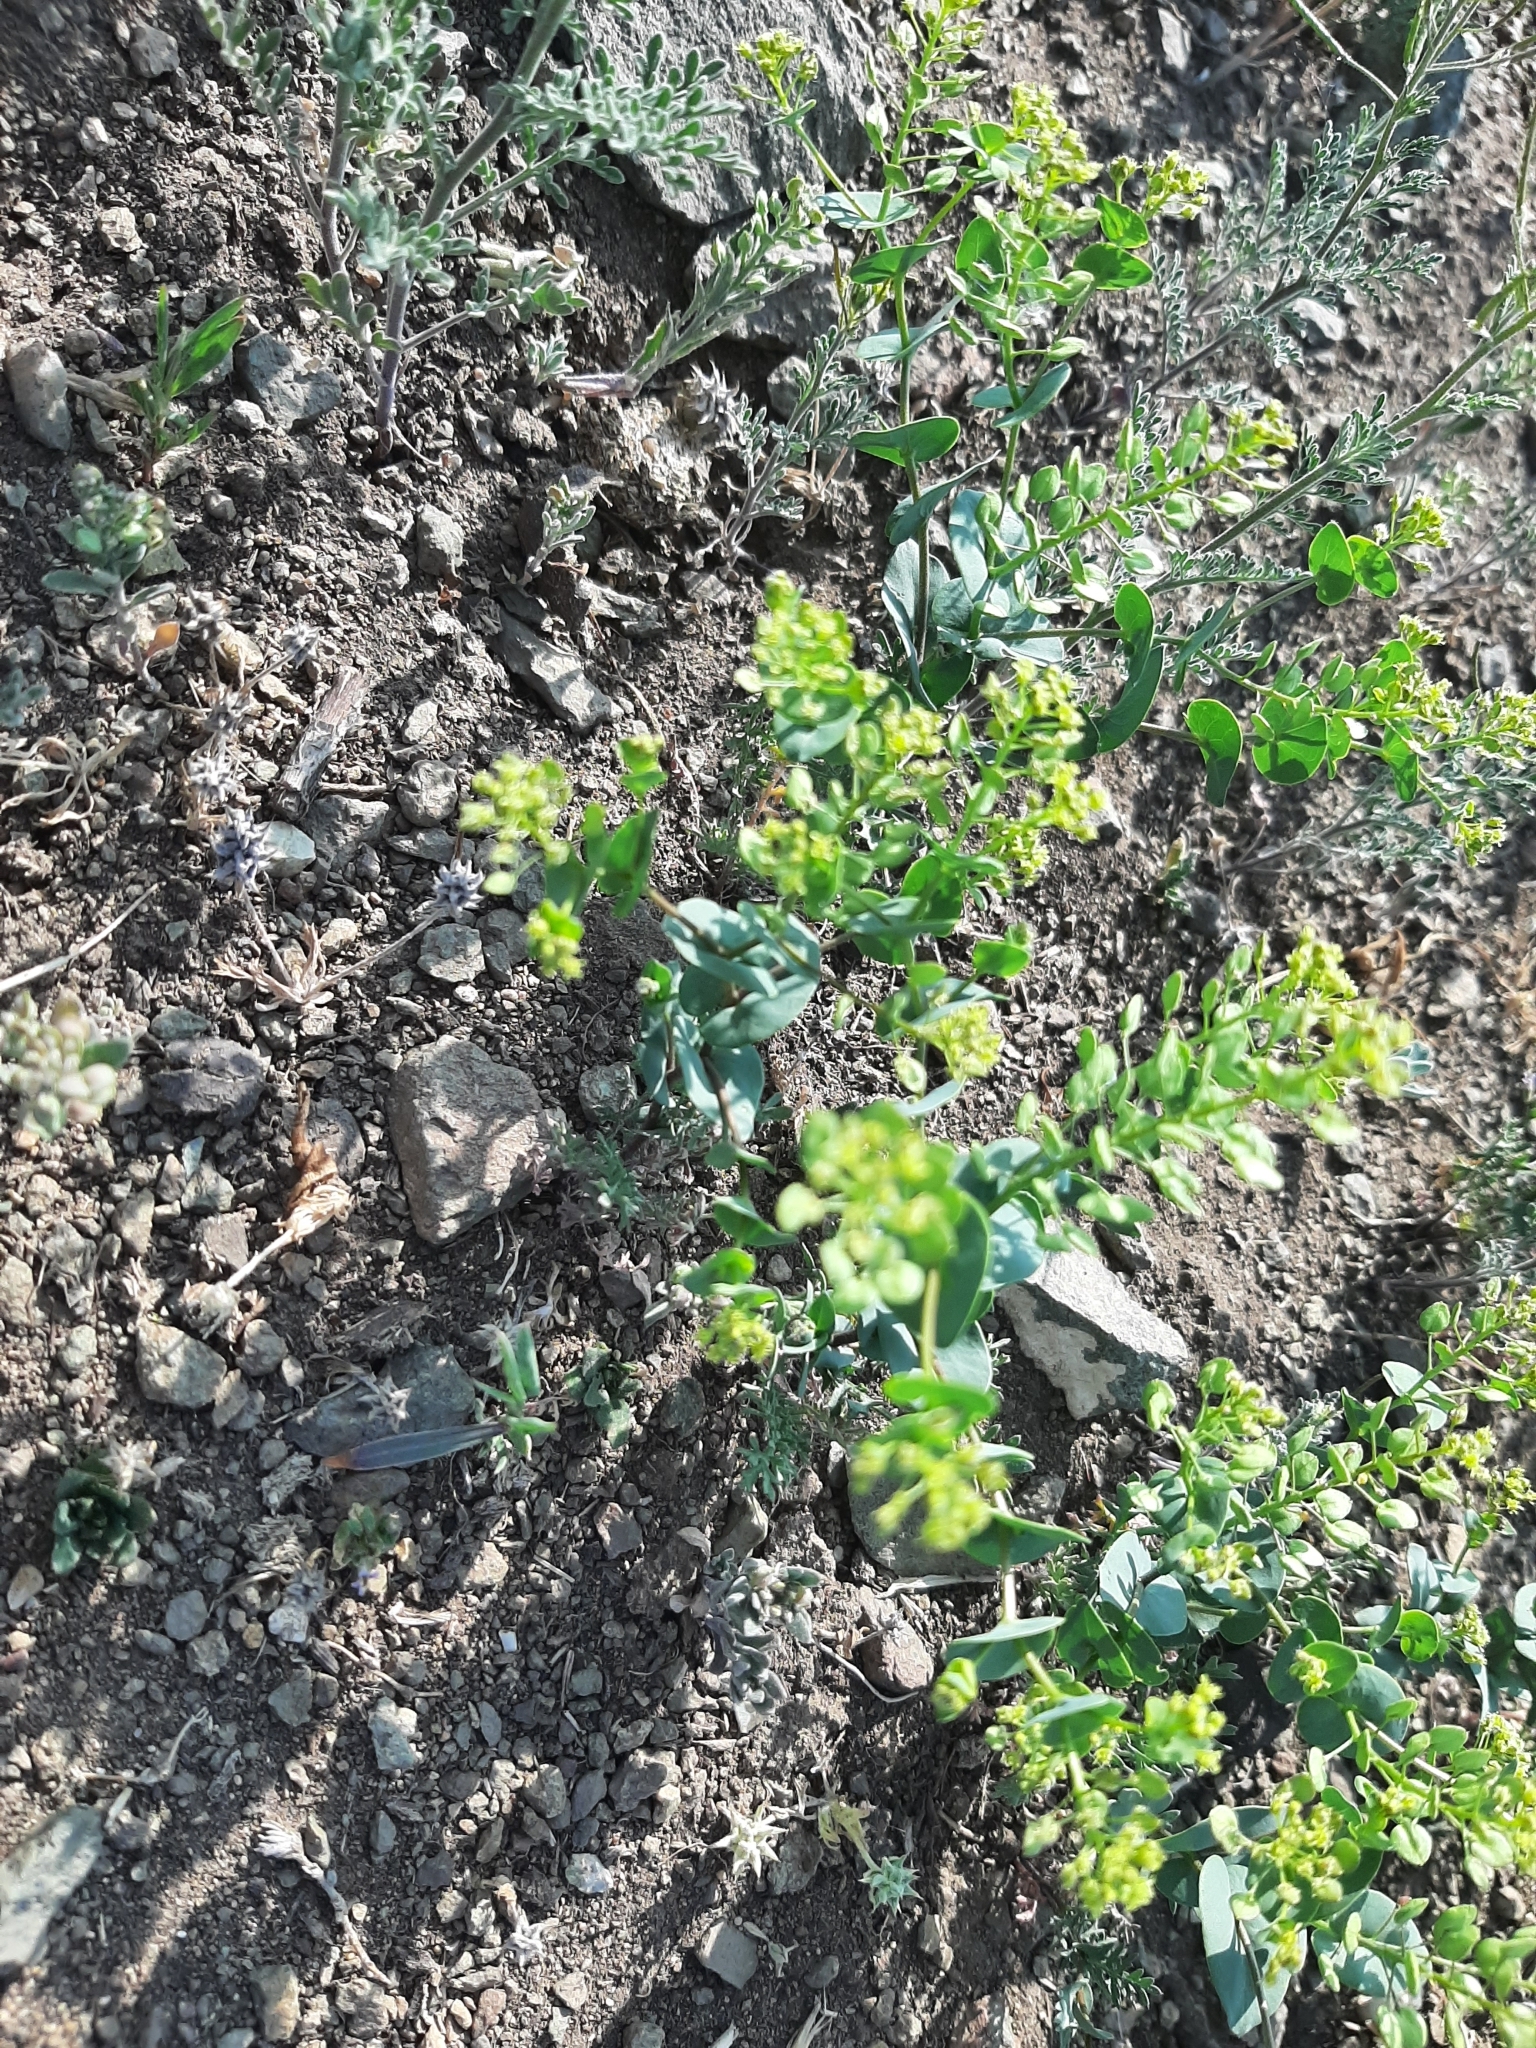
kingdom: Plantae
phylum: Tracheophyta
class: Magnoliopsida
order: Brassicales
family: Brassicaceae
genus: Lepidium
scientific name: Lepidium perfoliatum
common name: Perfoliate pepperwort
